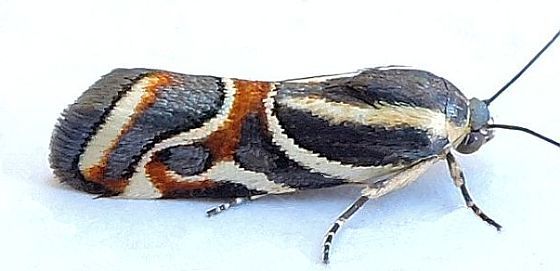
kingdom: Animalia
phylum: Arthropoda
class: Insecta
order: Lepidoptera
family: Noctuidae
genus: Spragueia
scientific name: Spragueia magnifica
